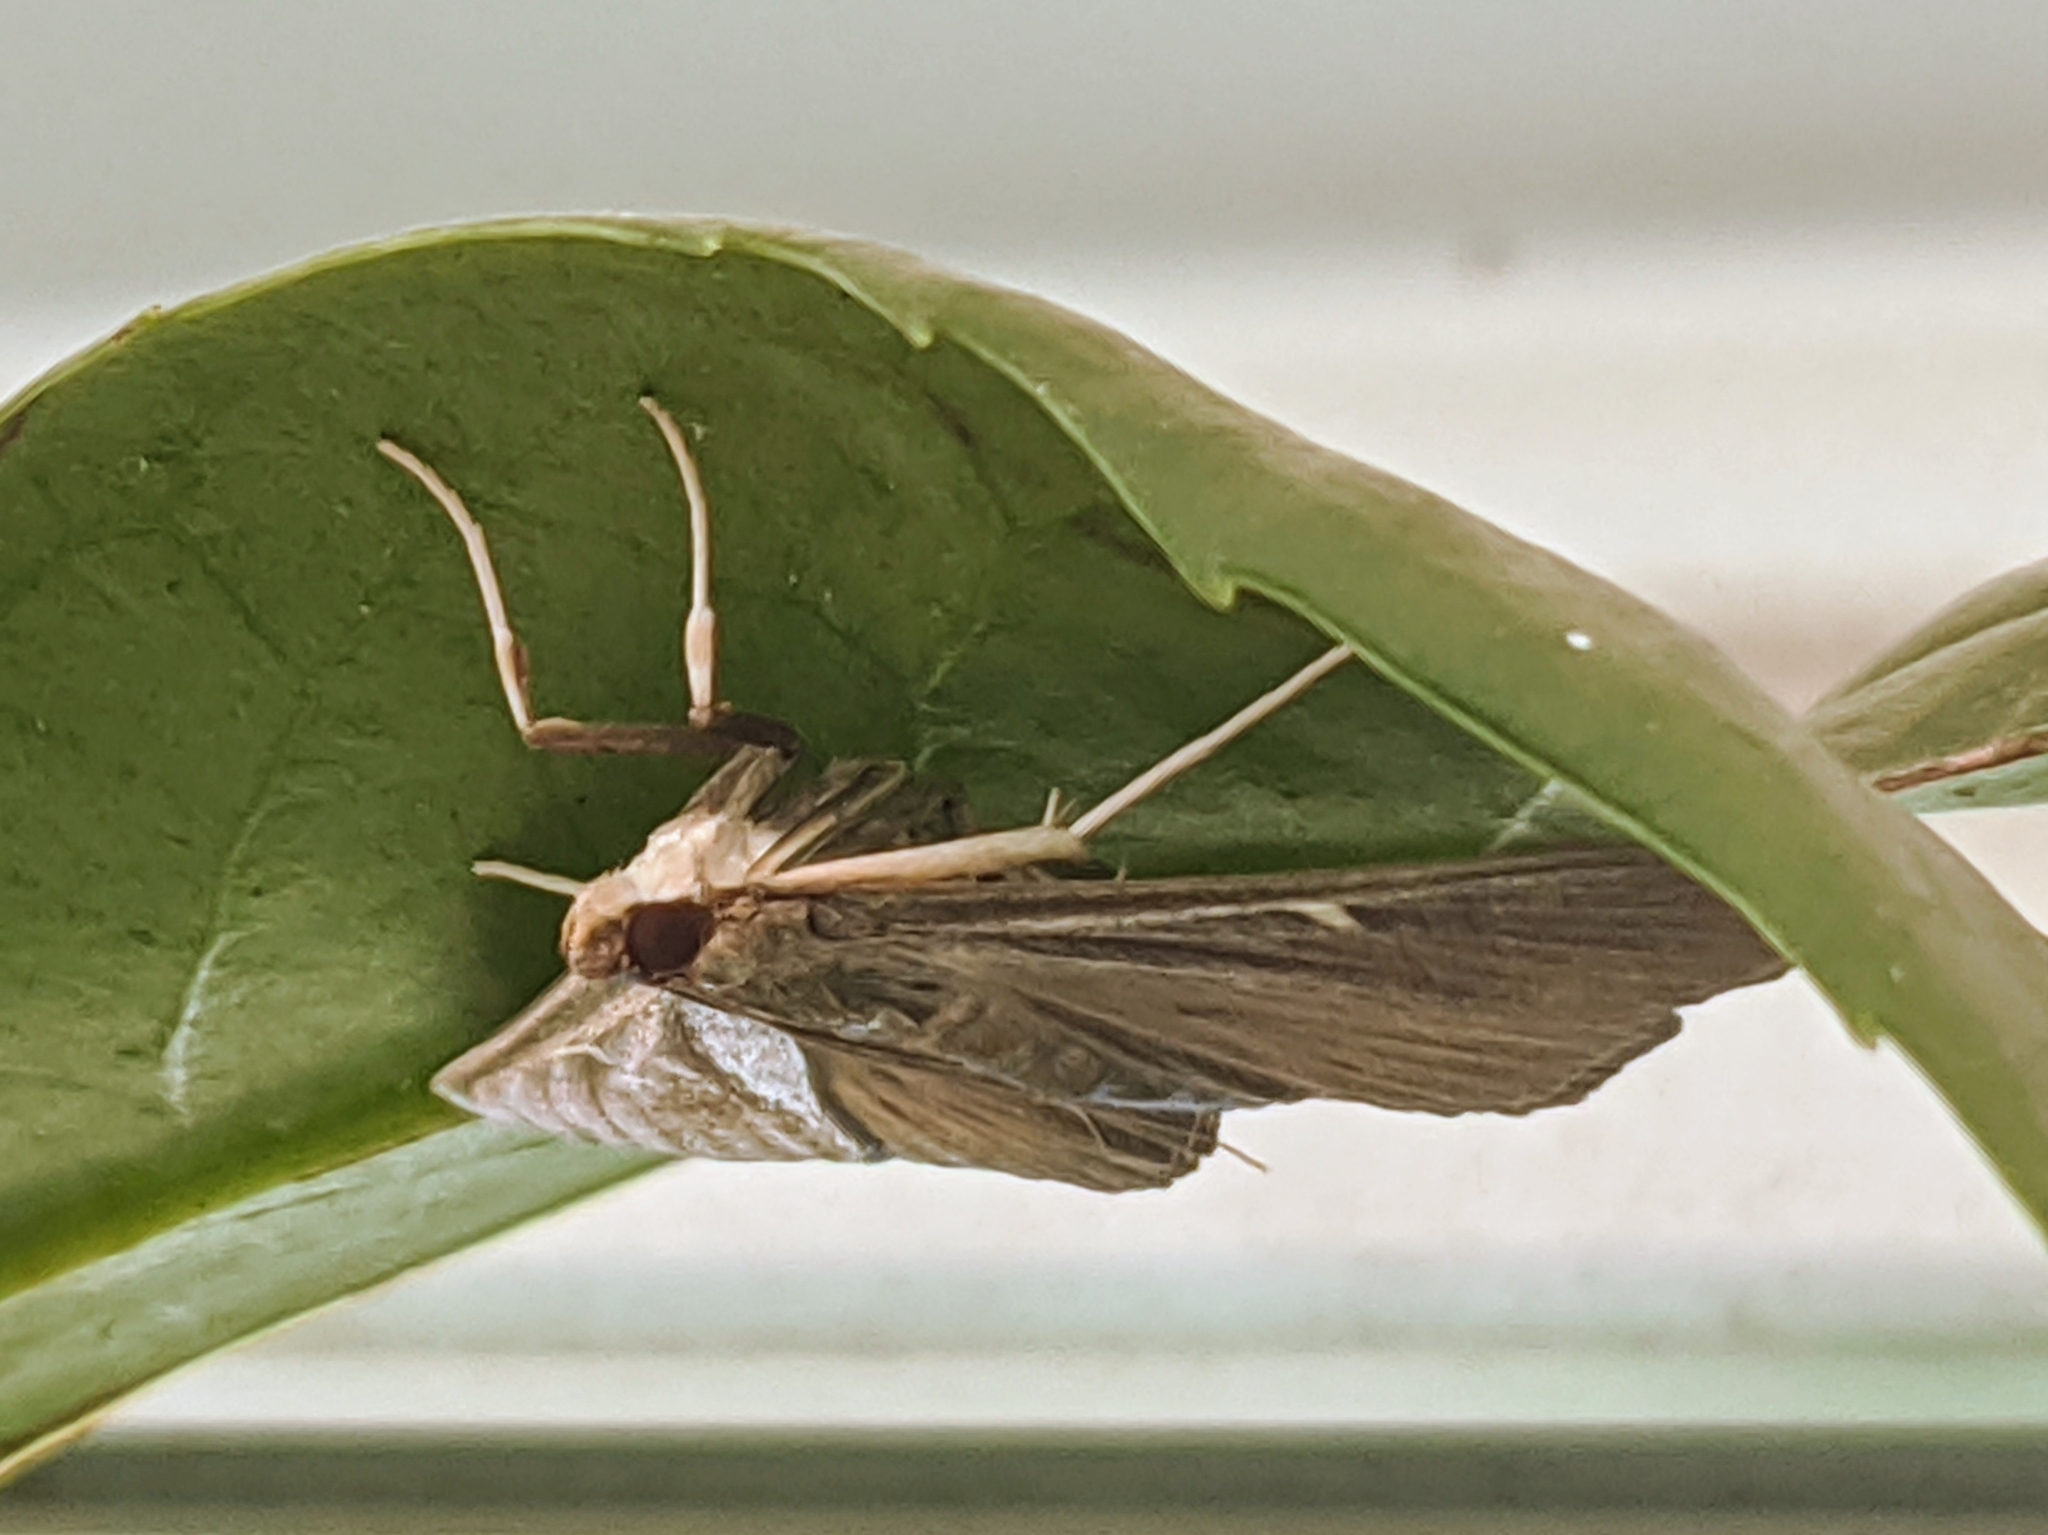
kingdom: Animalia
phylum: Arthropoda
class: Insecta
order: Lepidoptera
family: Crambidae
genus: Cydalima
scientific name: Cydalima perspectalis
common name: Box tree moth
